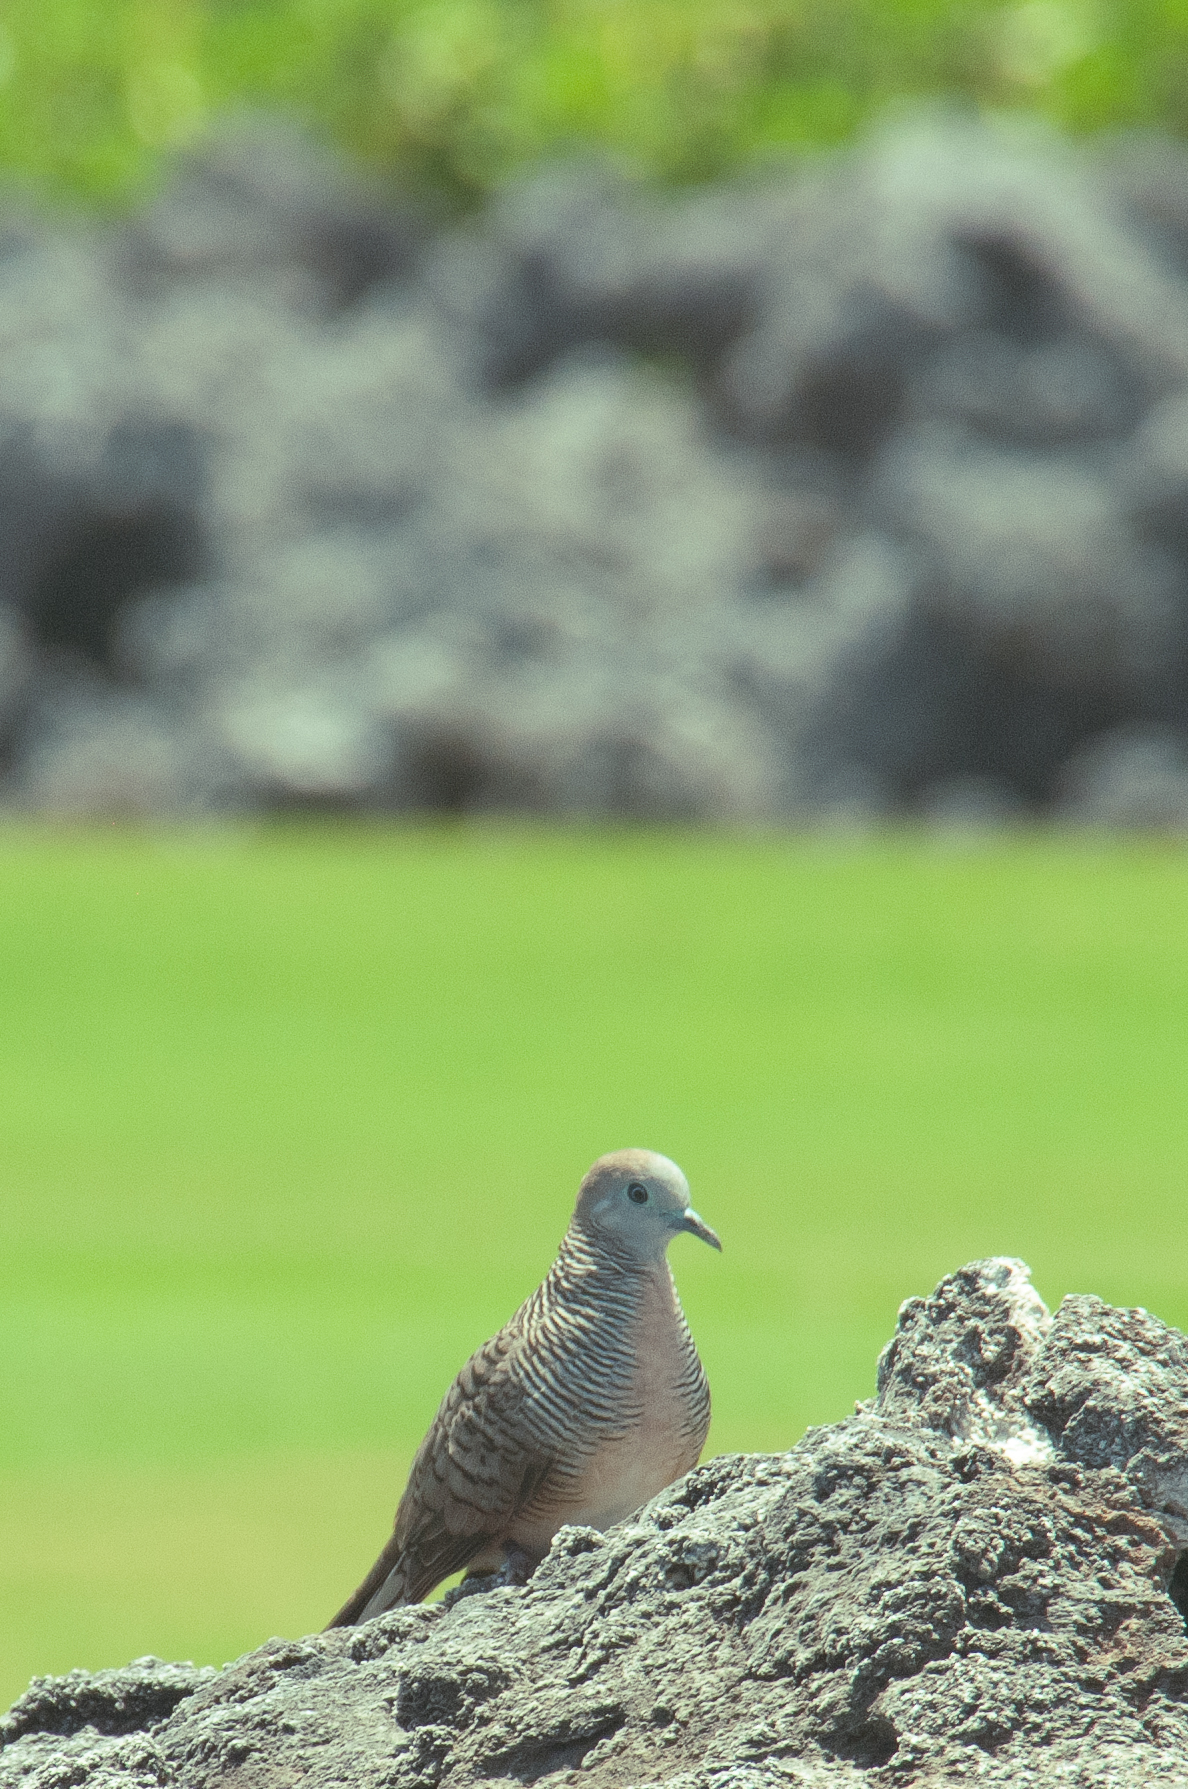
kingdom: Animalia
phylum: Chordata
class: Aves
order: Columbiformes
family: Columbidae
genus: Geopelia
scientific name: Geopelia striata
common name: Zebra dove
